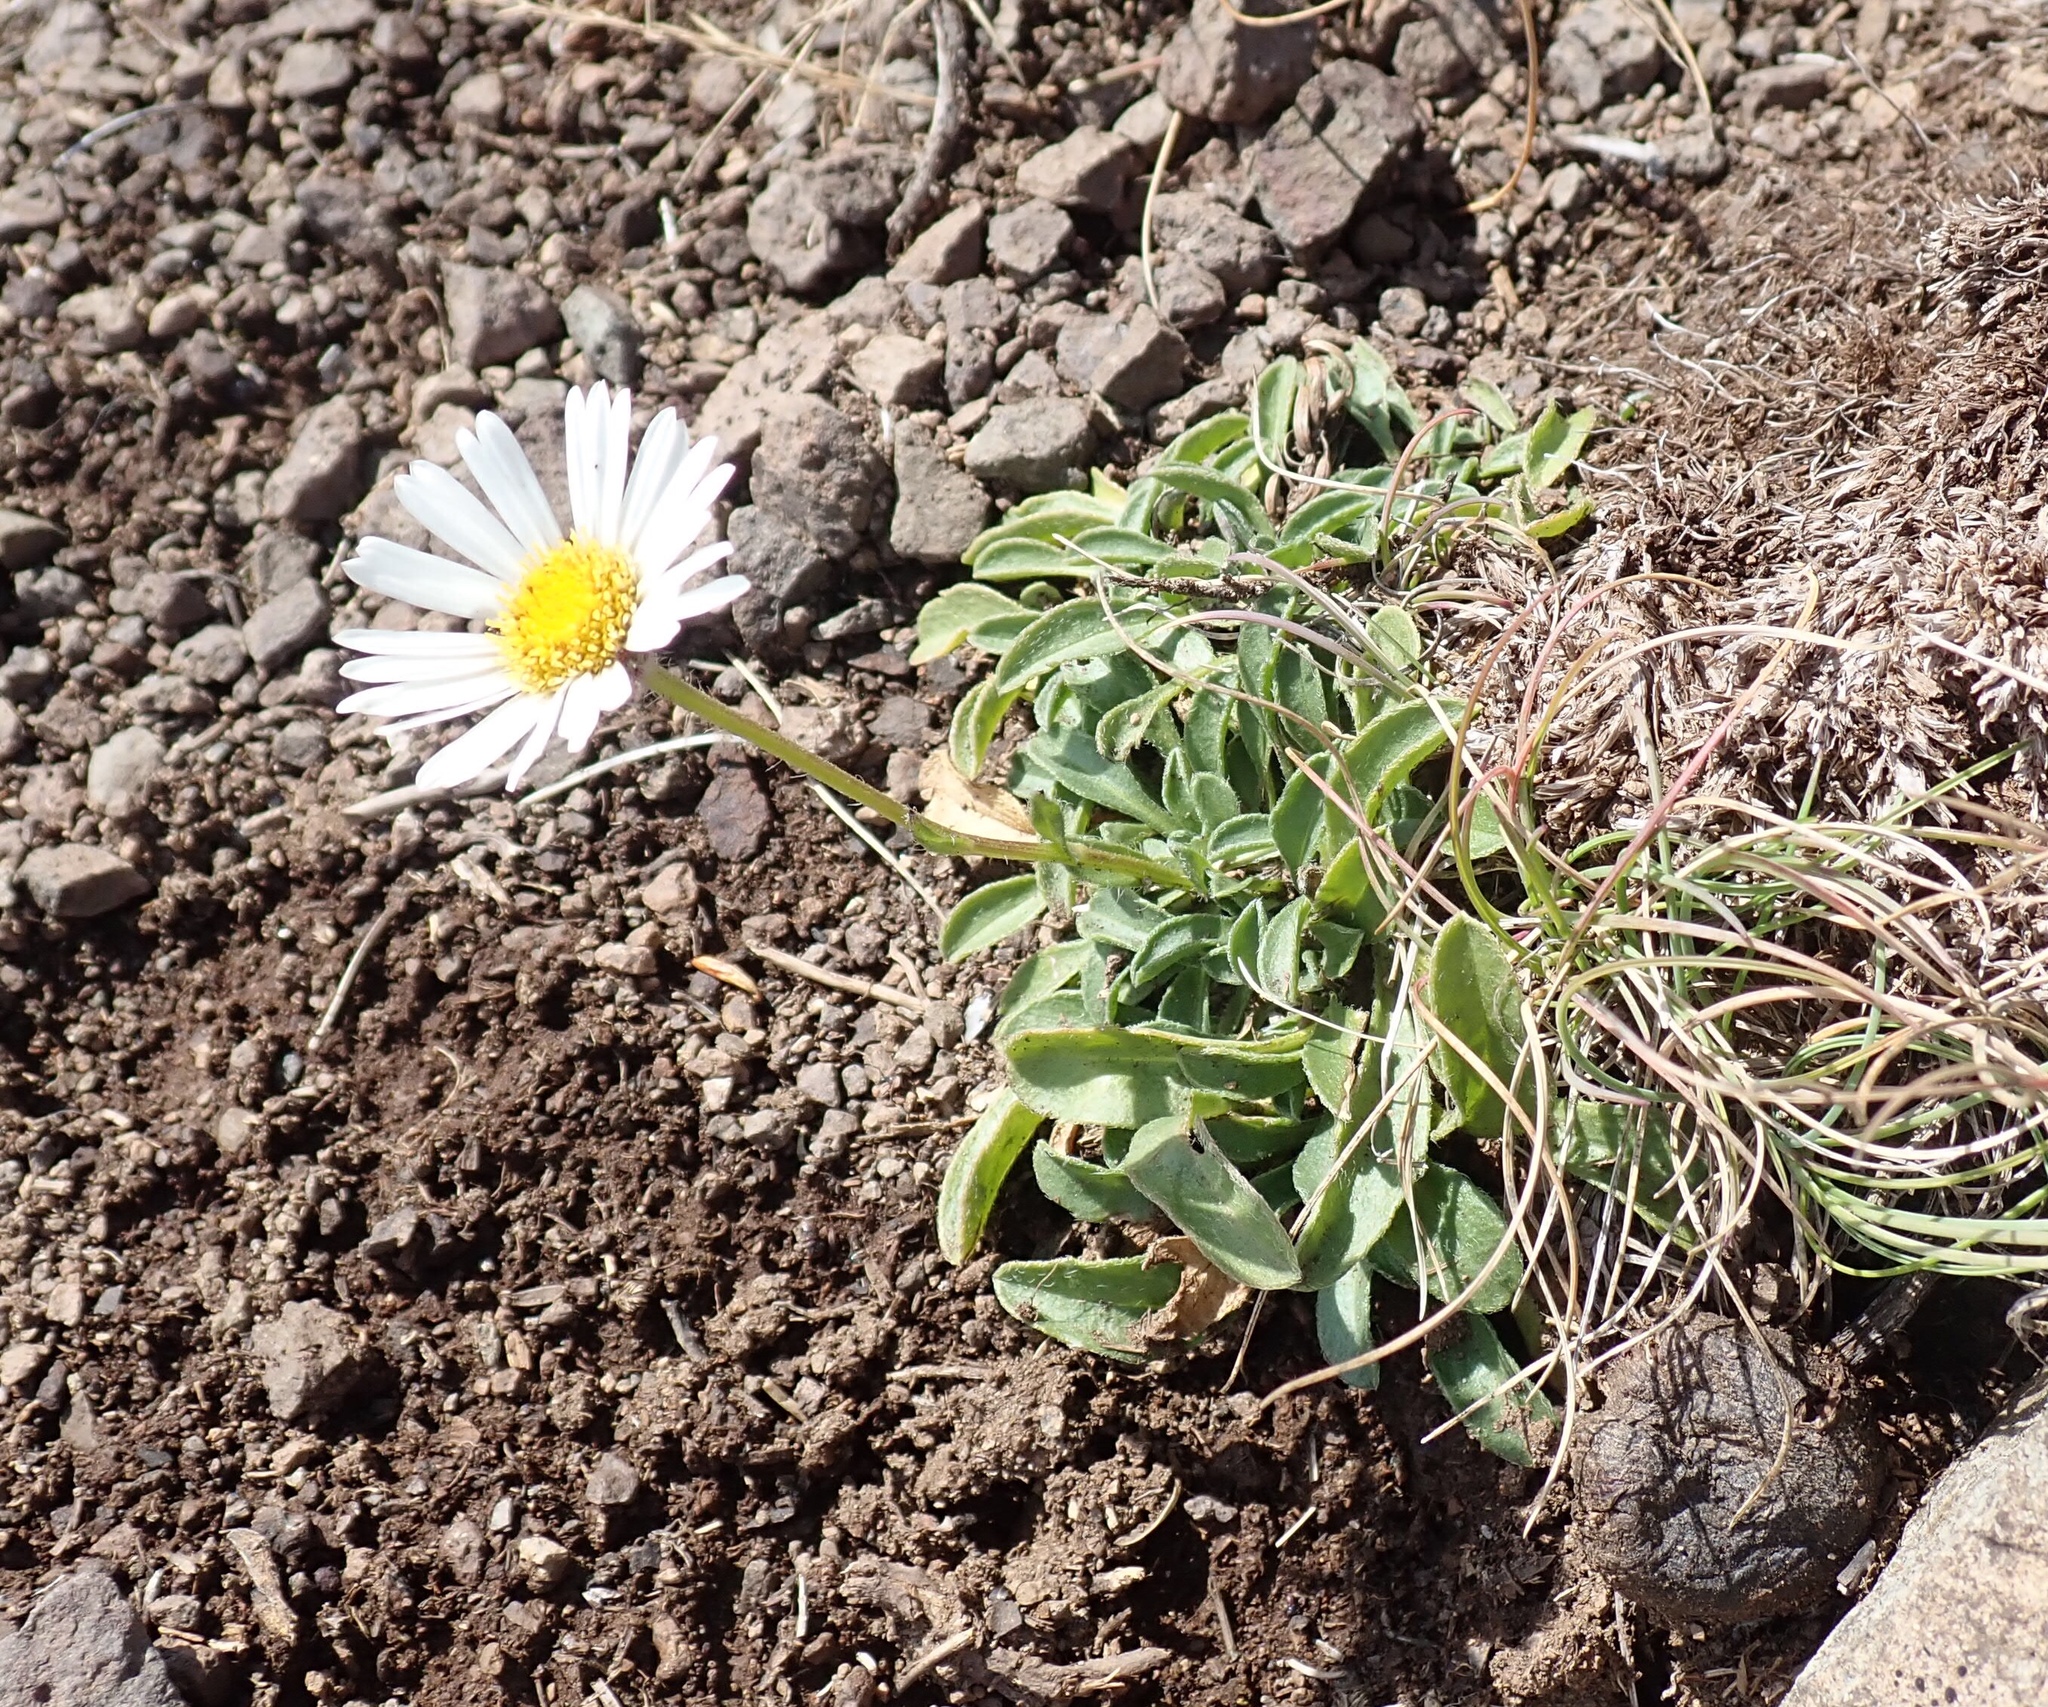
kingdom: Plantae
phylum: Tracheophyta
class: Magnoliopsida
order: Asterales
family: Asteraceae
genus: Erigeron
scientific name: Erigeron flettii
